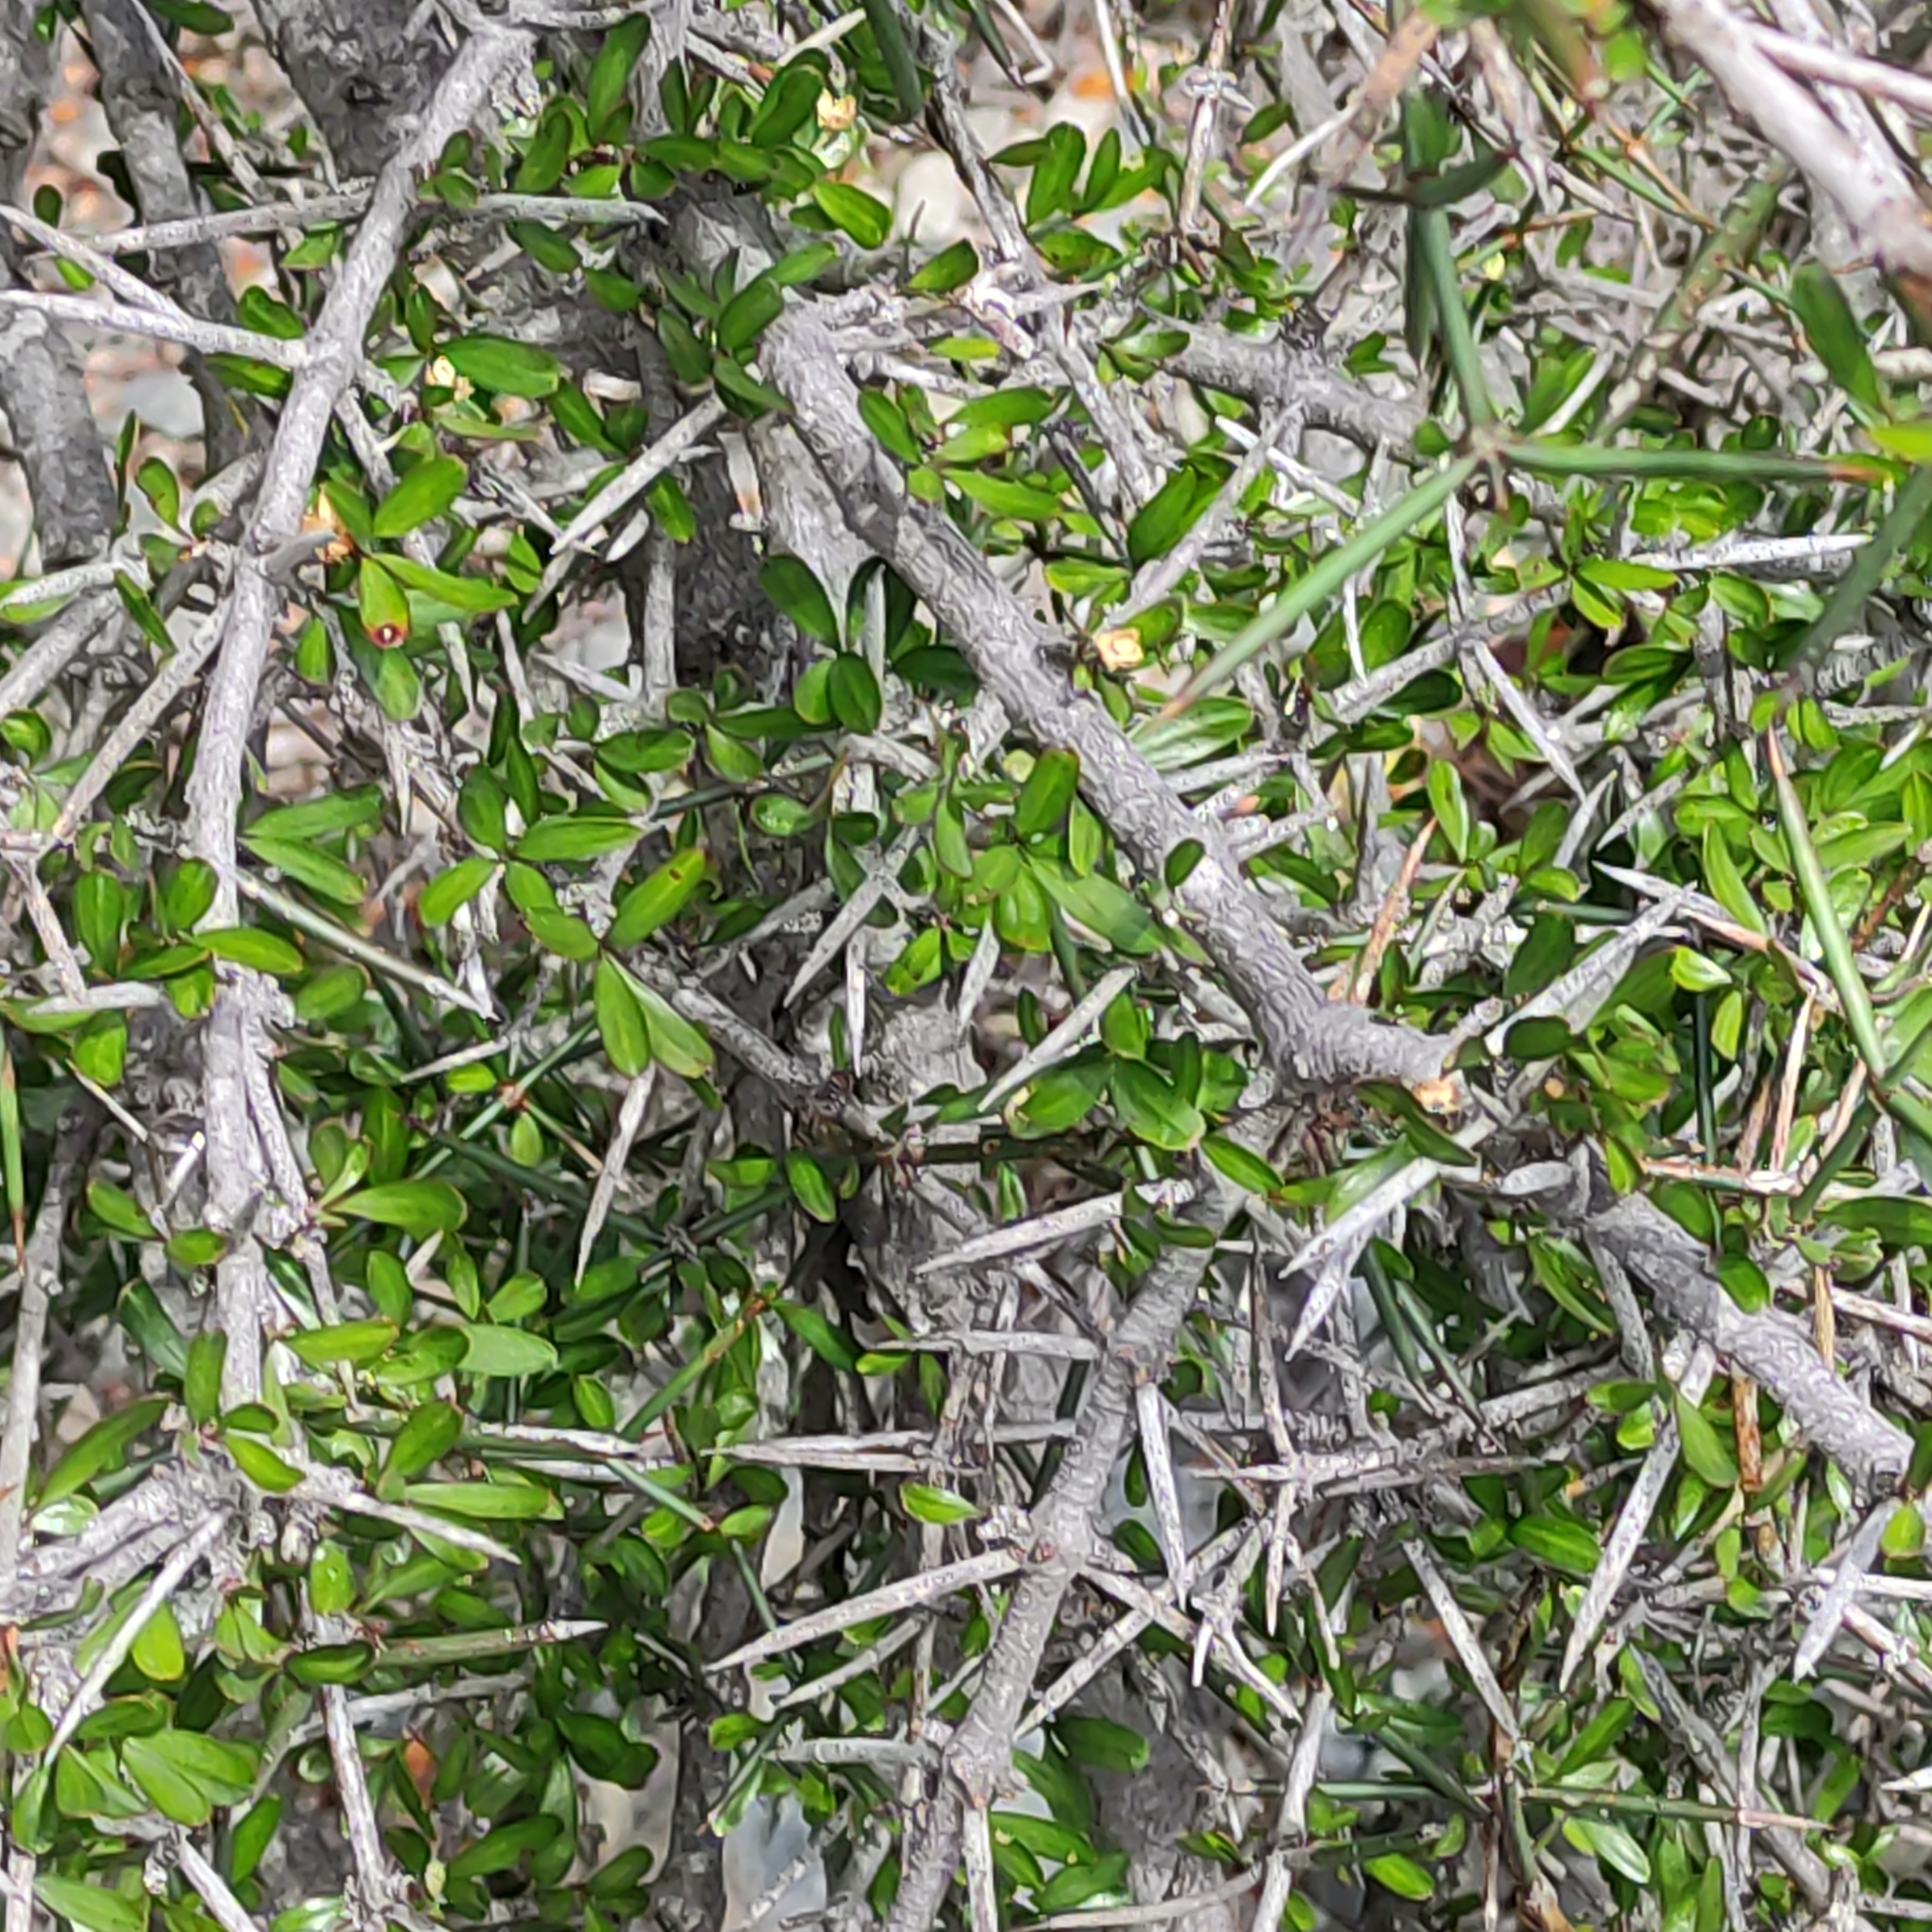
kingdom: Plantae
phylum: Tracheophyta
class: Magnoliopsida
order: Rosales
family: Rhamnaceae
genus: Discaria
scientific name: Discaria toumatou
